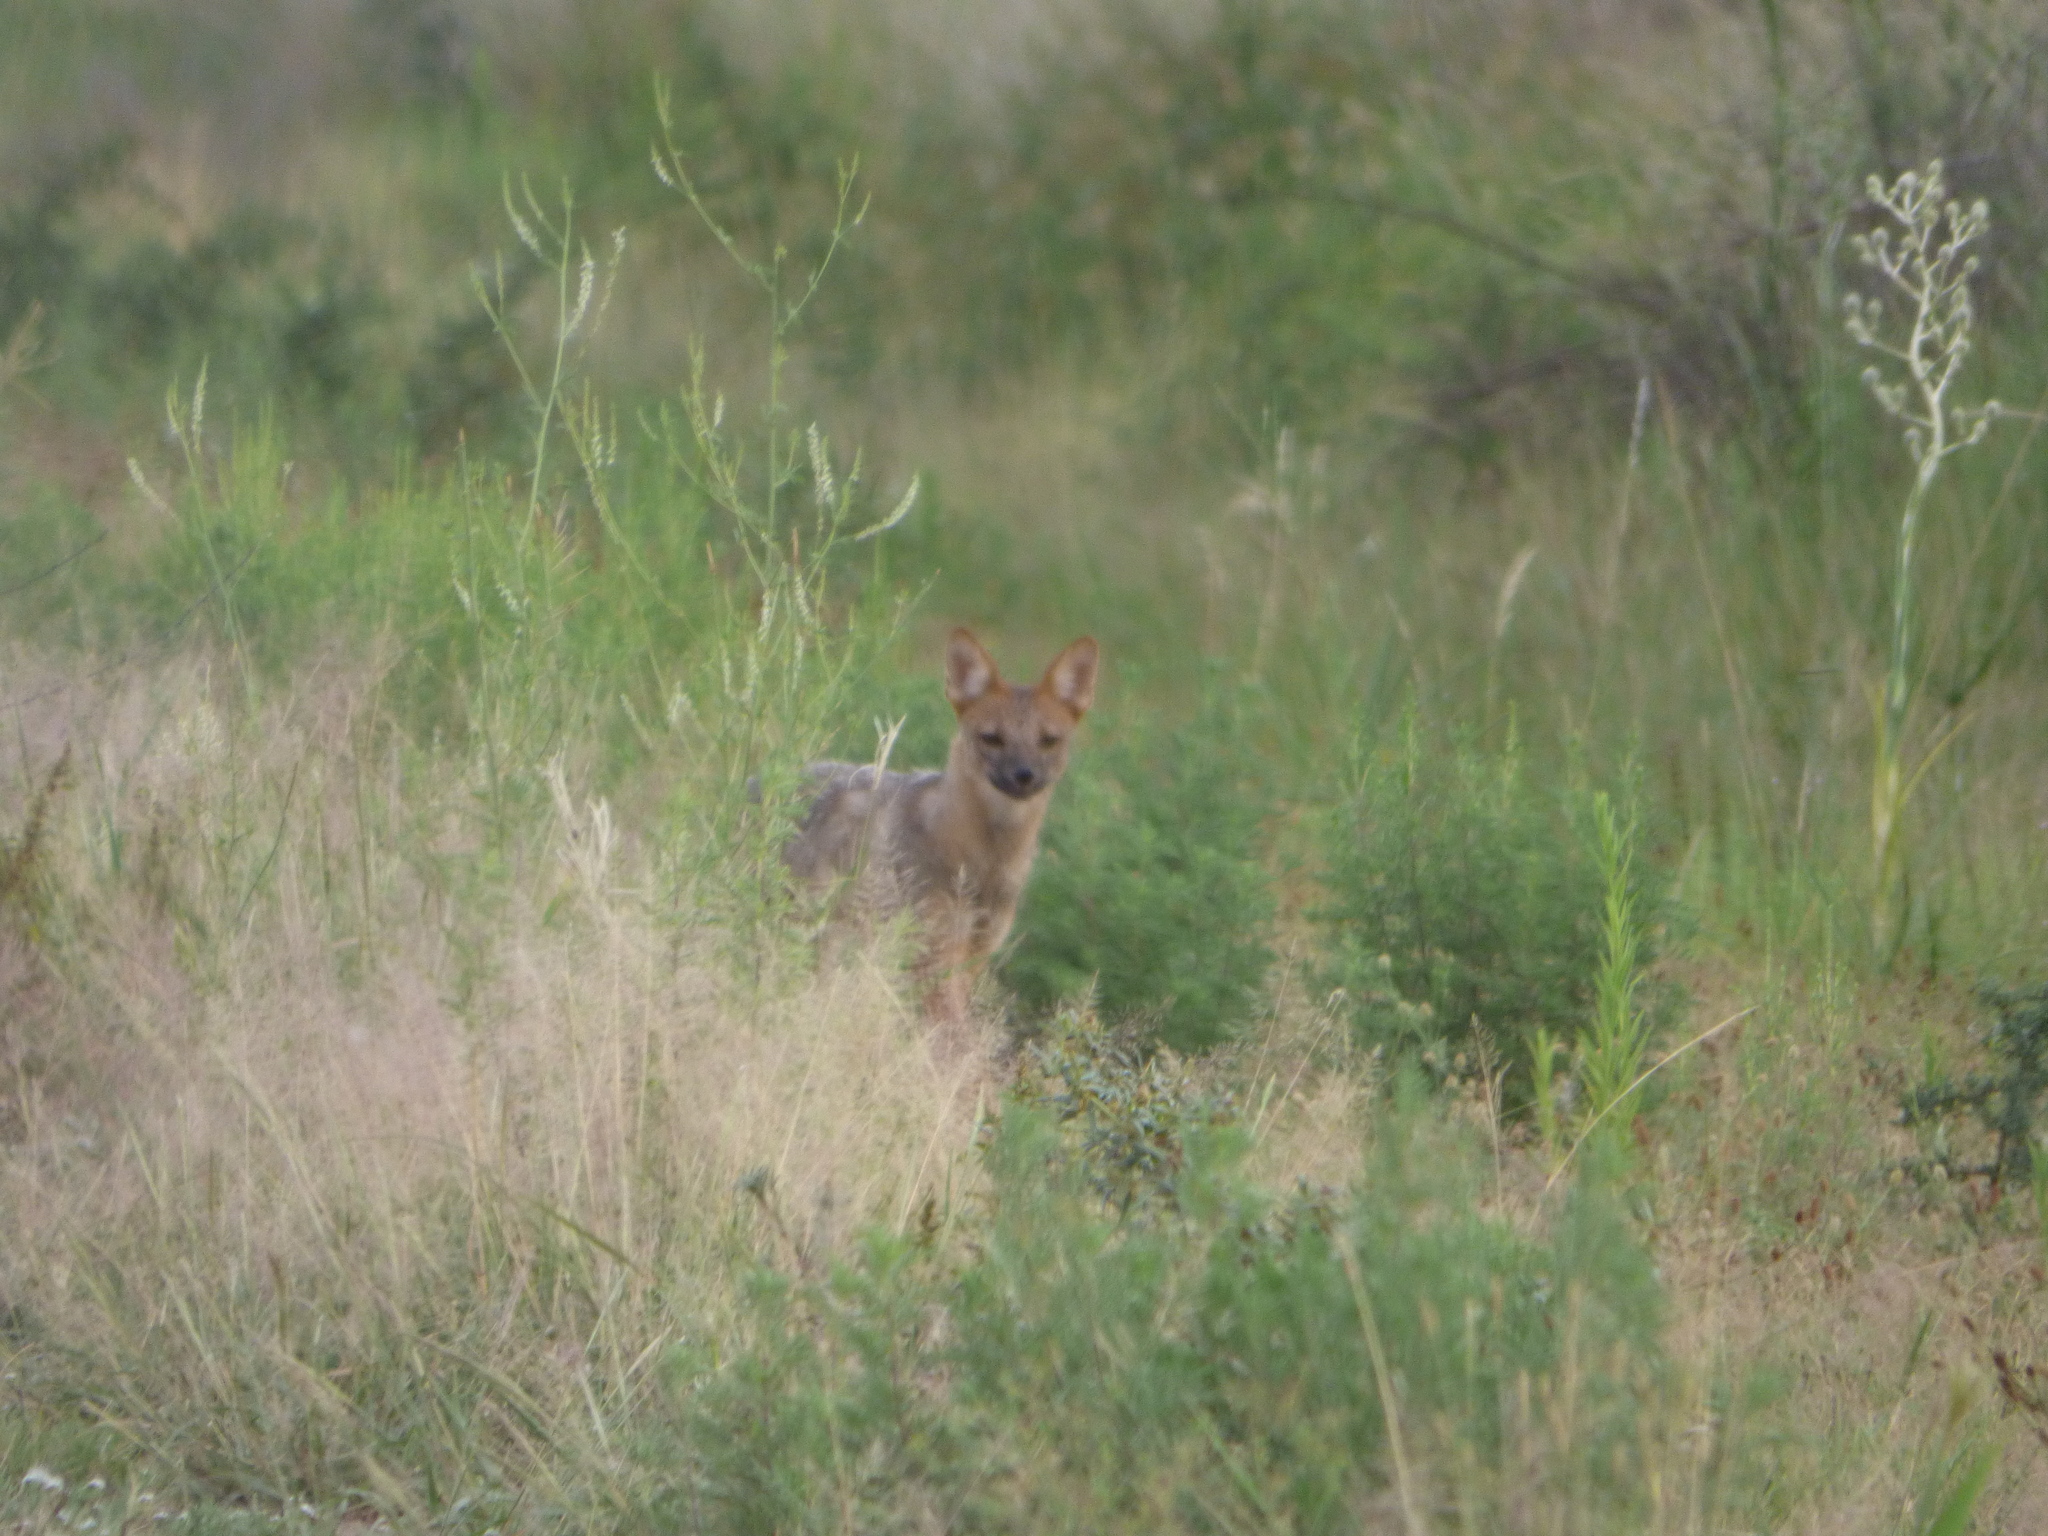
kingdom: Animalia
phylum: Chordata
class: Mammalia
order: Carnivora
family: Canidae
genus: Lycalopex
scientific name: Lycalopex gymnocercus
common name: Pampas fox
